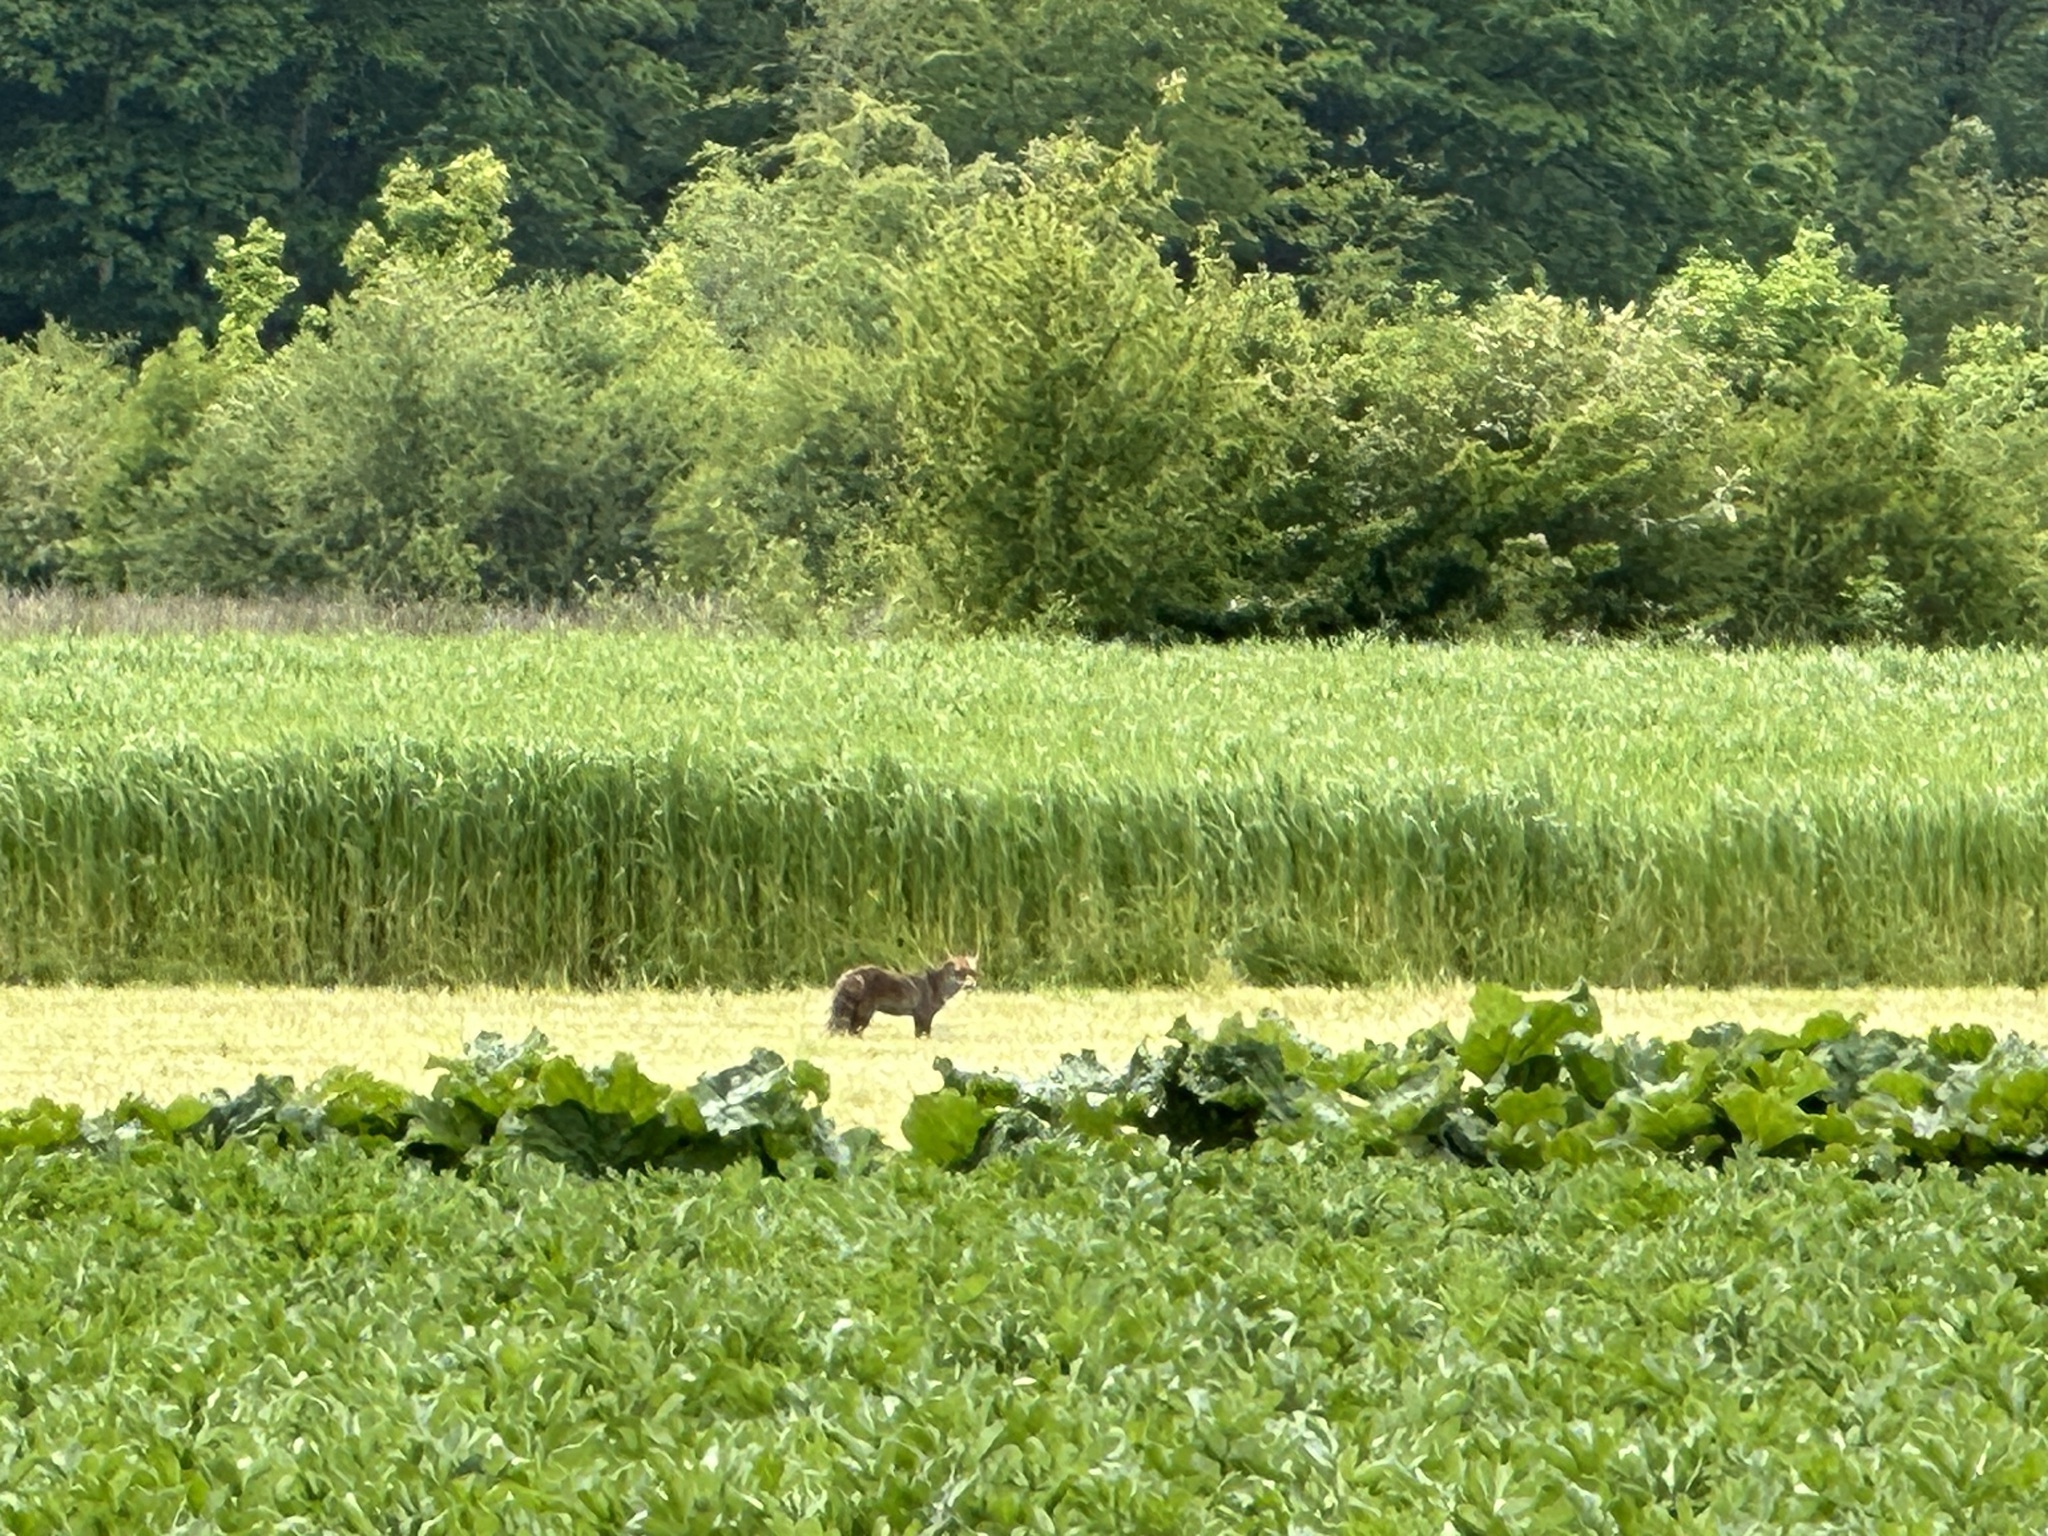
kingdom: Animalia
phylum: Chordata
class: Mammalia
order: Carnivora
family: Canidae
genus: Vulpes
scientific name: Vulpes vulpes
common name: Red fox
